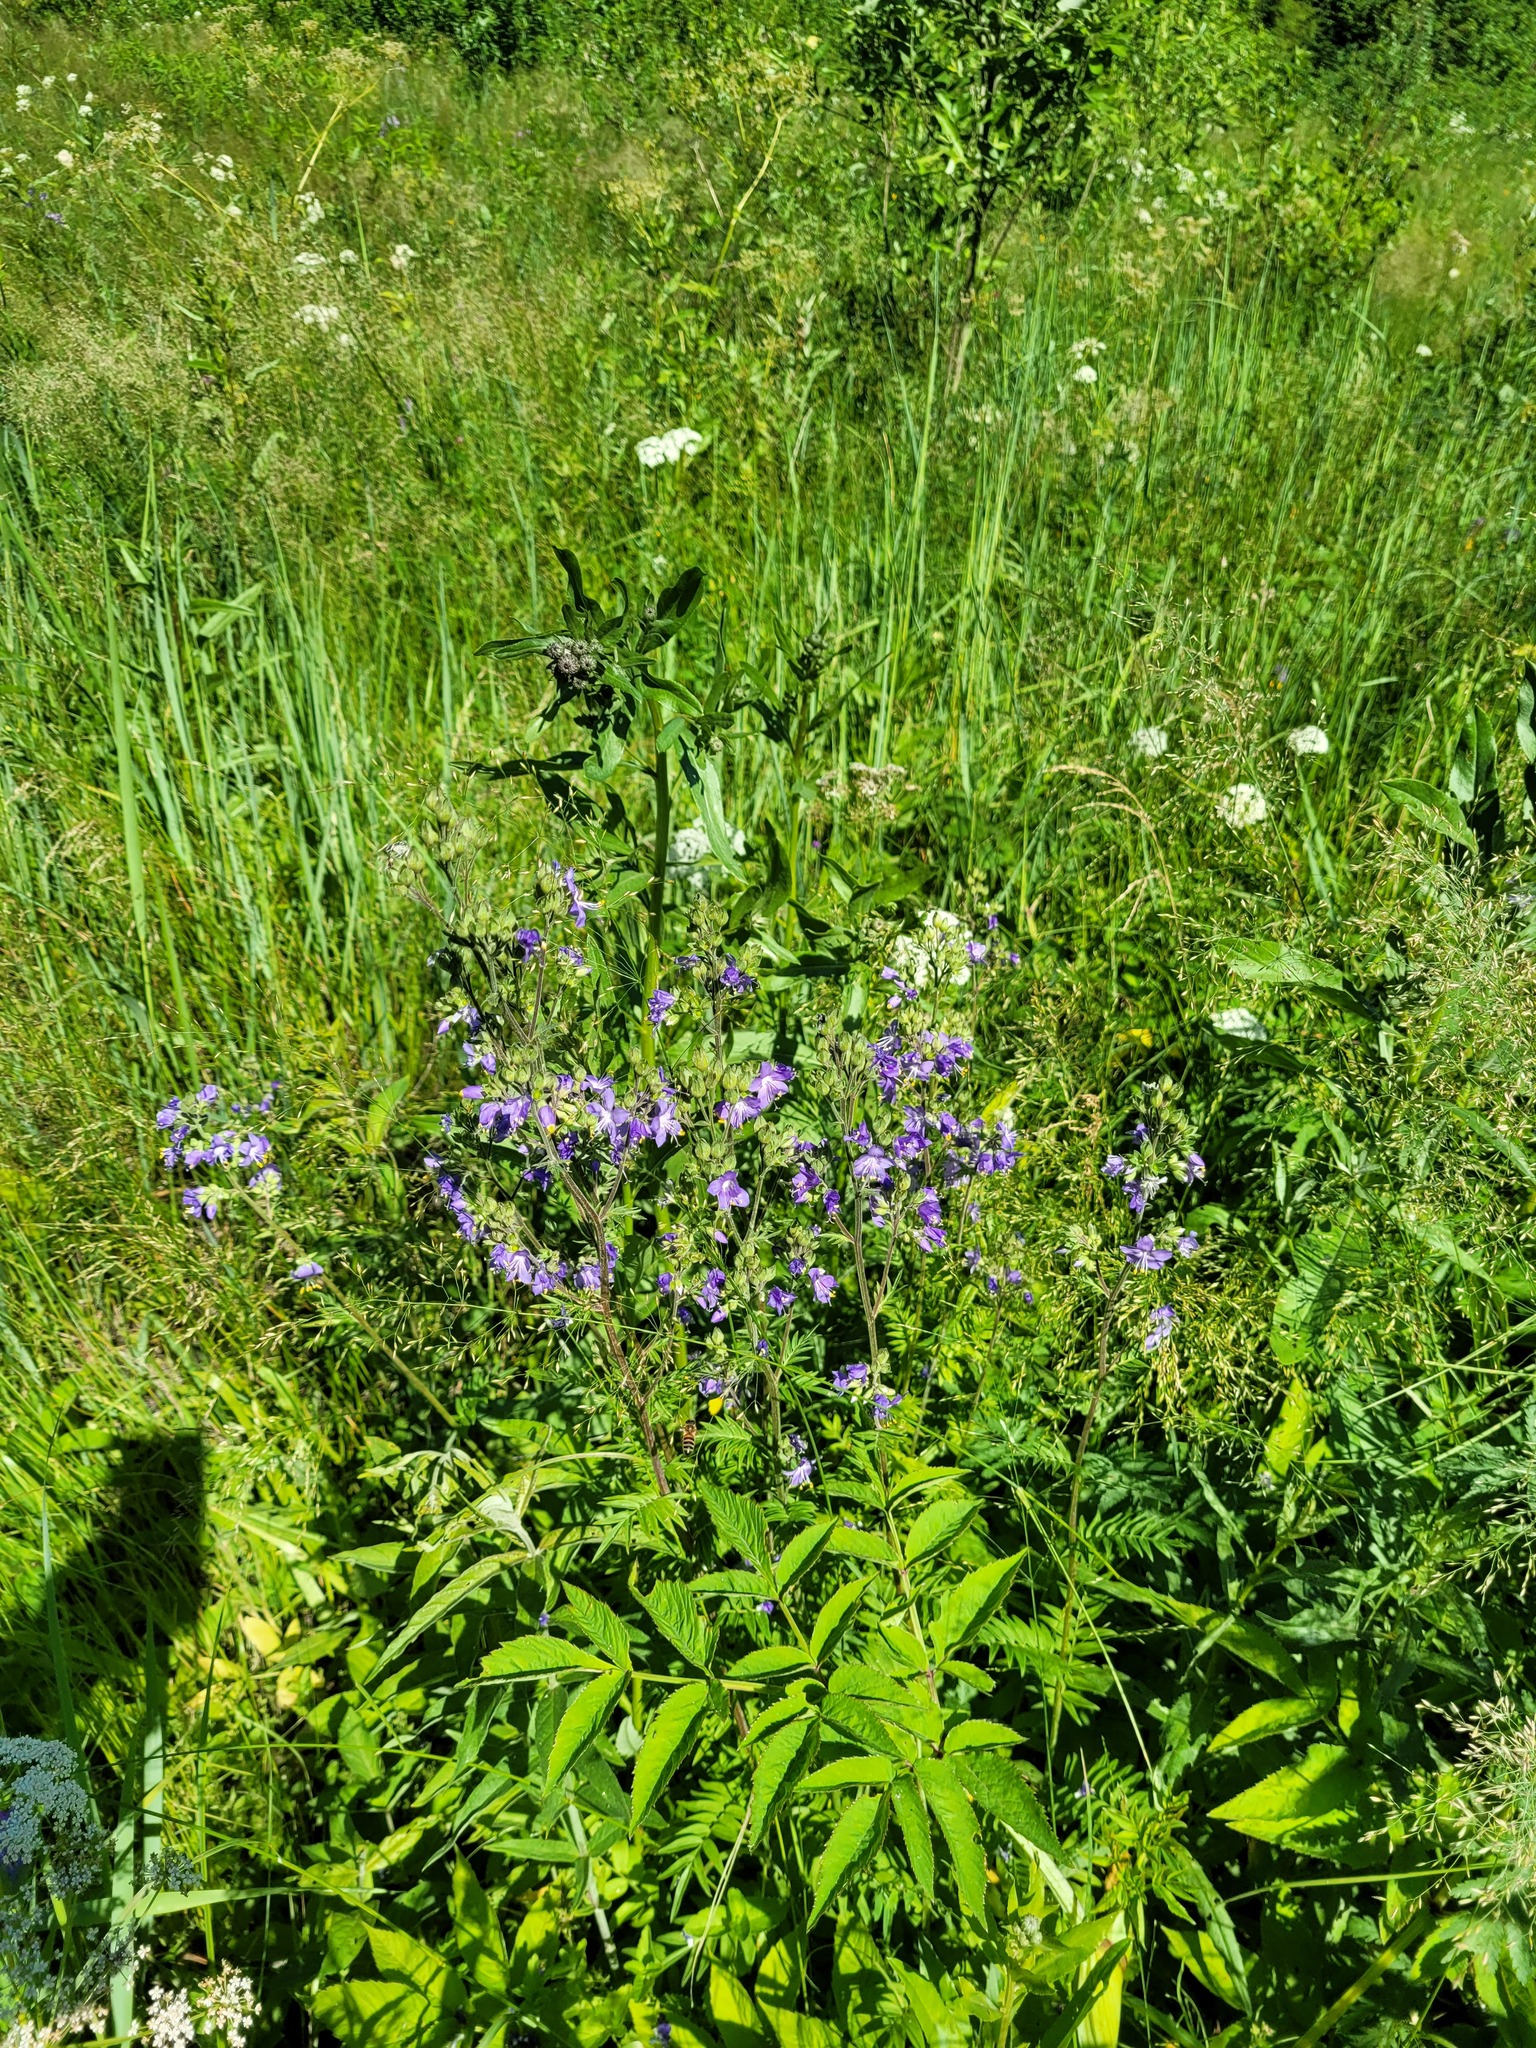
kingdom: Plantae
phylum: Tracheophyta
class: Magnoliopsida
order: Ericales
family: Polemoniaceae
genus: Polemonium
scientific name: Polemonium caeruleum
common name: Jacob's-ladder
